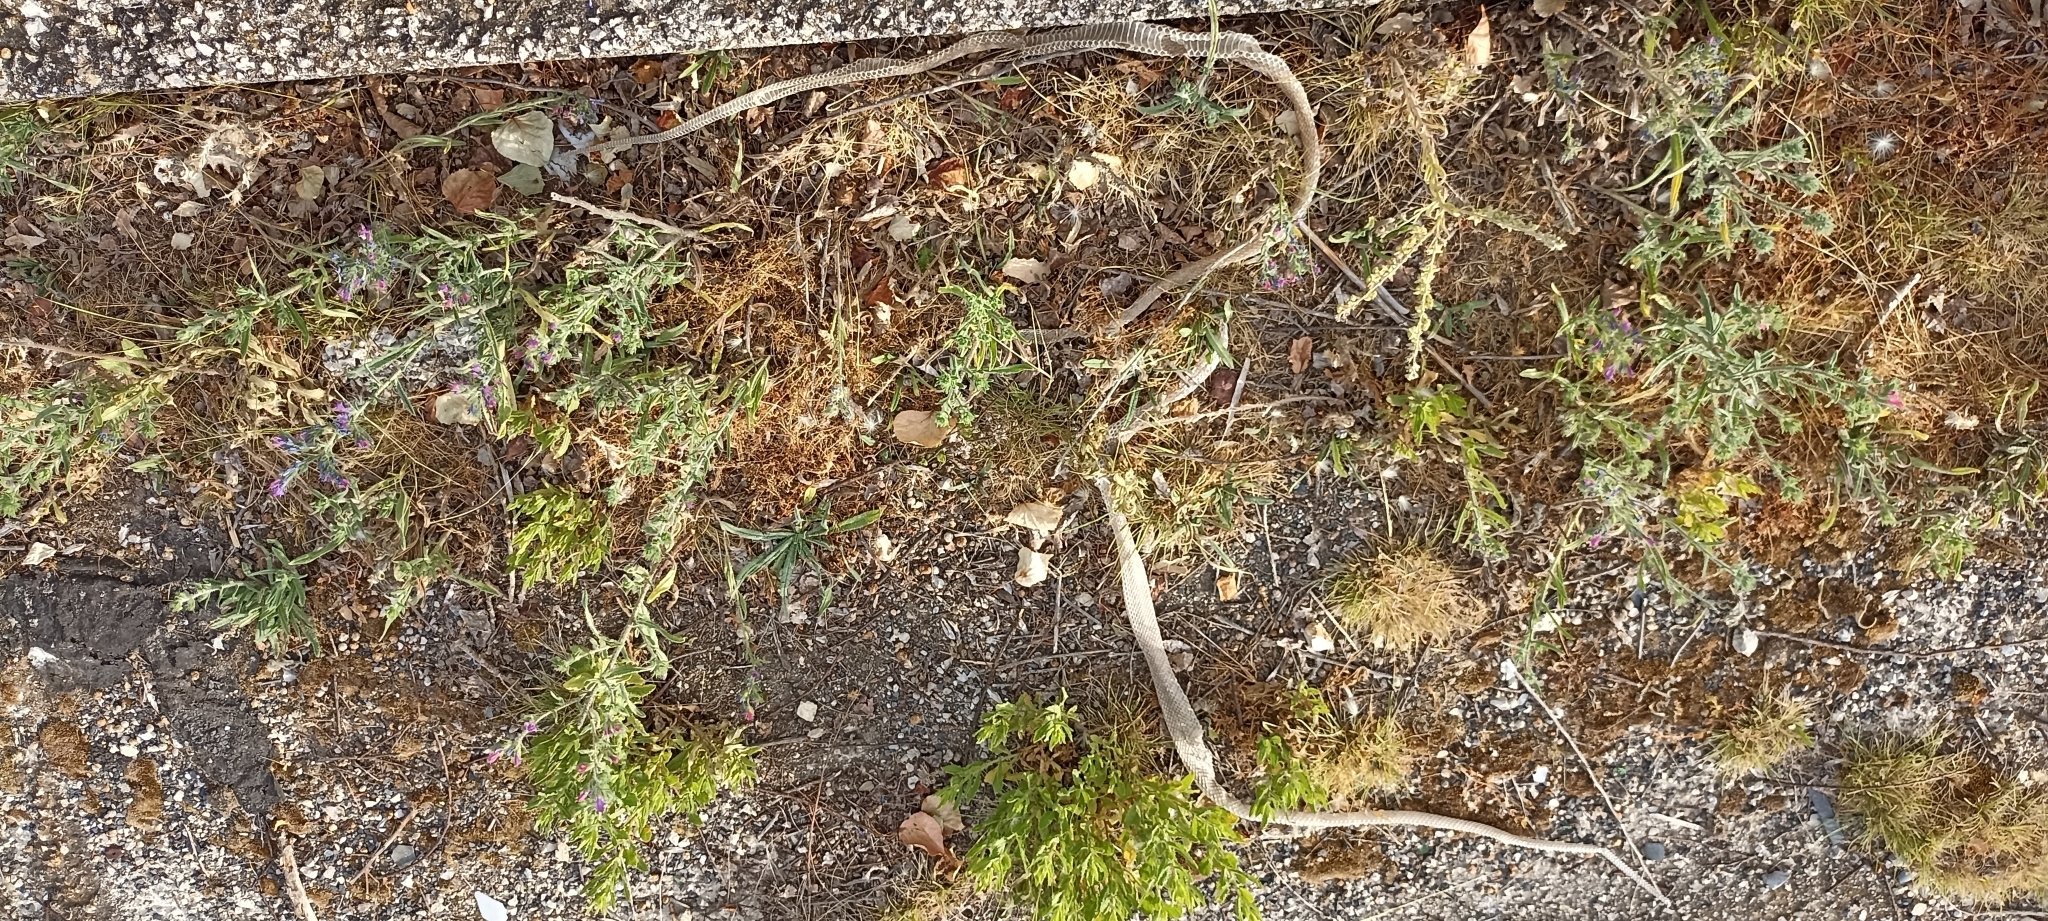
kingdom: Animalia
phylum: Chordata
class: Squamata
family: Psammophiidae
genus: Malpolon
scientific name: Malpolon monspessulanus
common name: Montpellier snake
